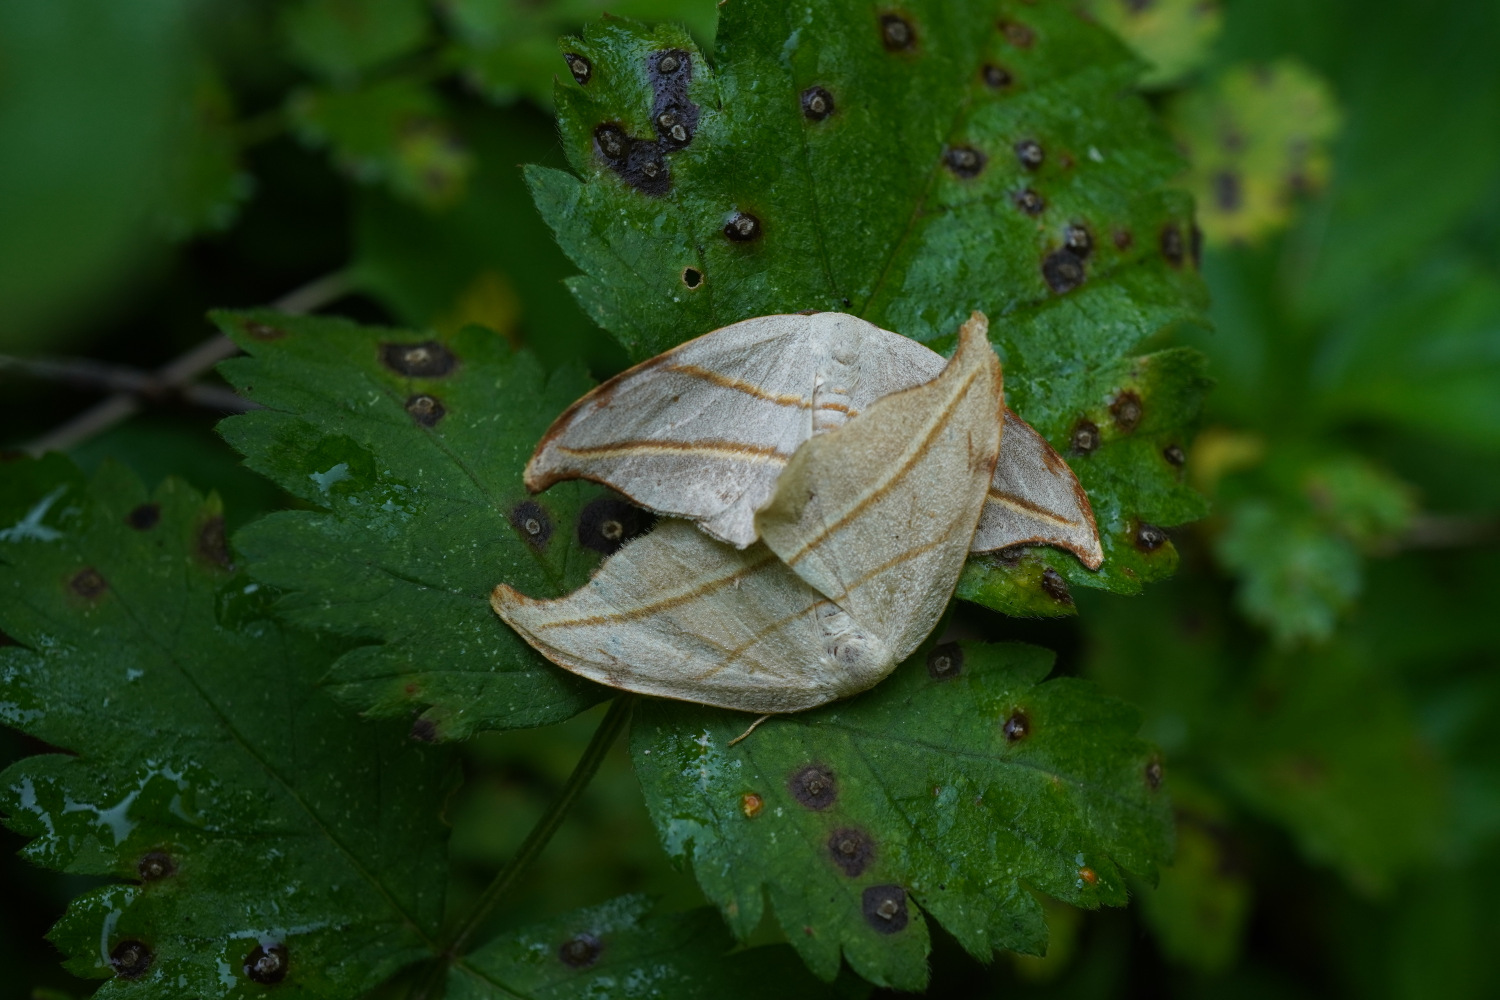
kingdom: Animalia
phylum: Arthropoda
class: Insecta
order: Lepidoptera
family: Drepanidae
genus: Nordstromia
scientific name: Nordstromia japonica
